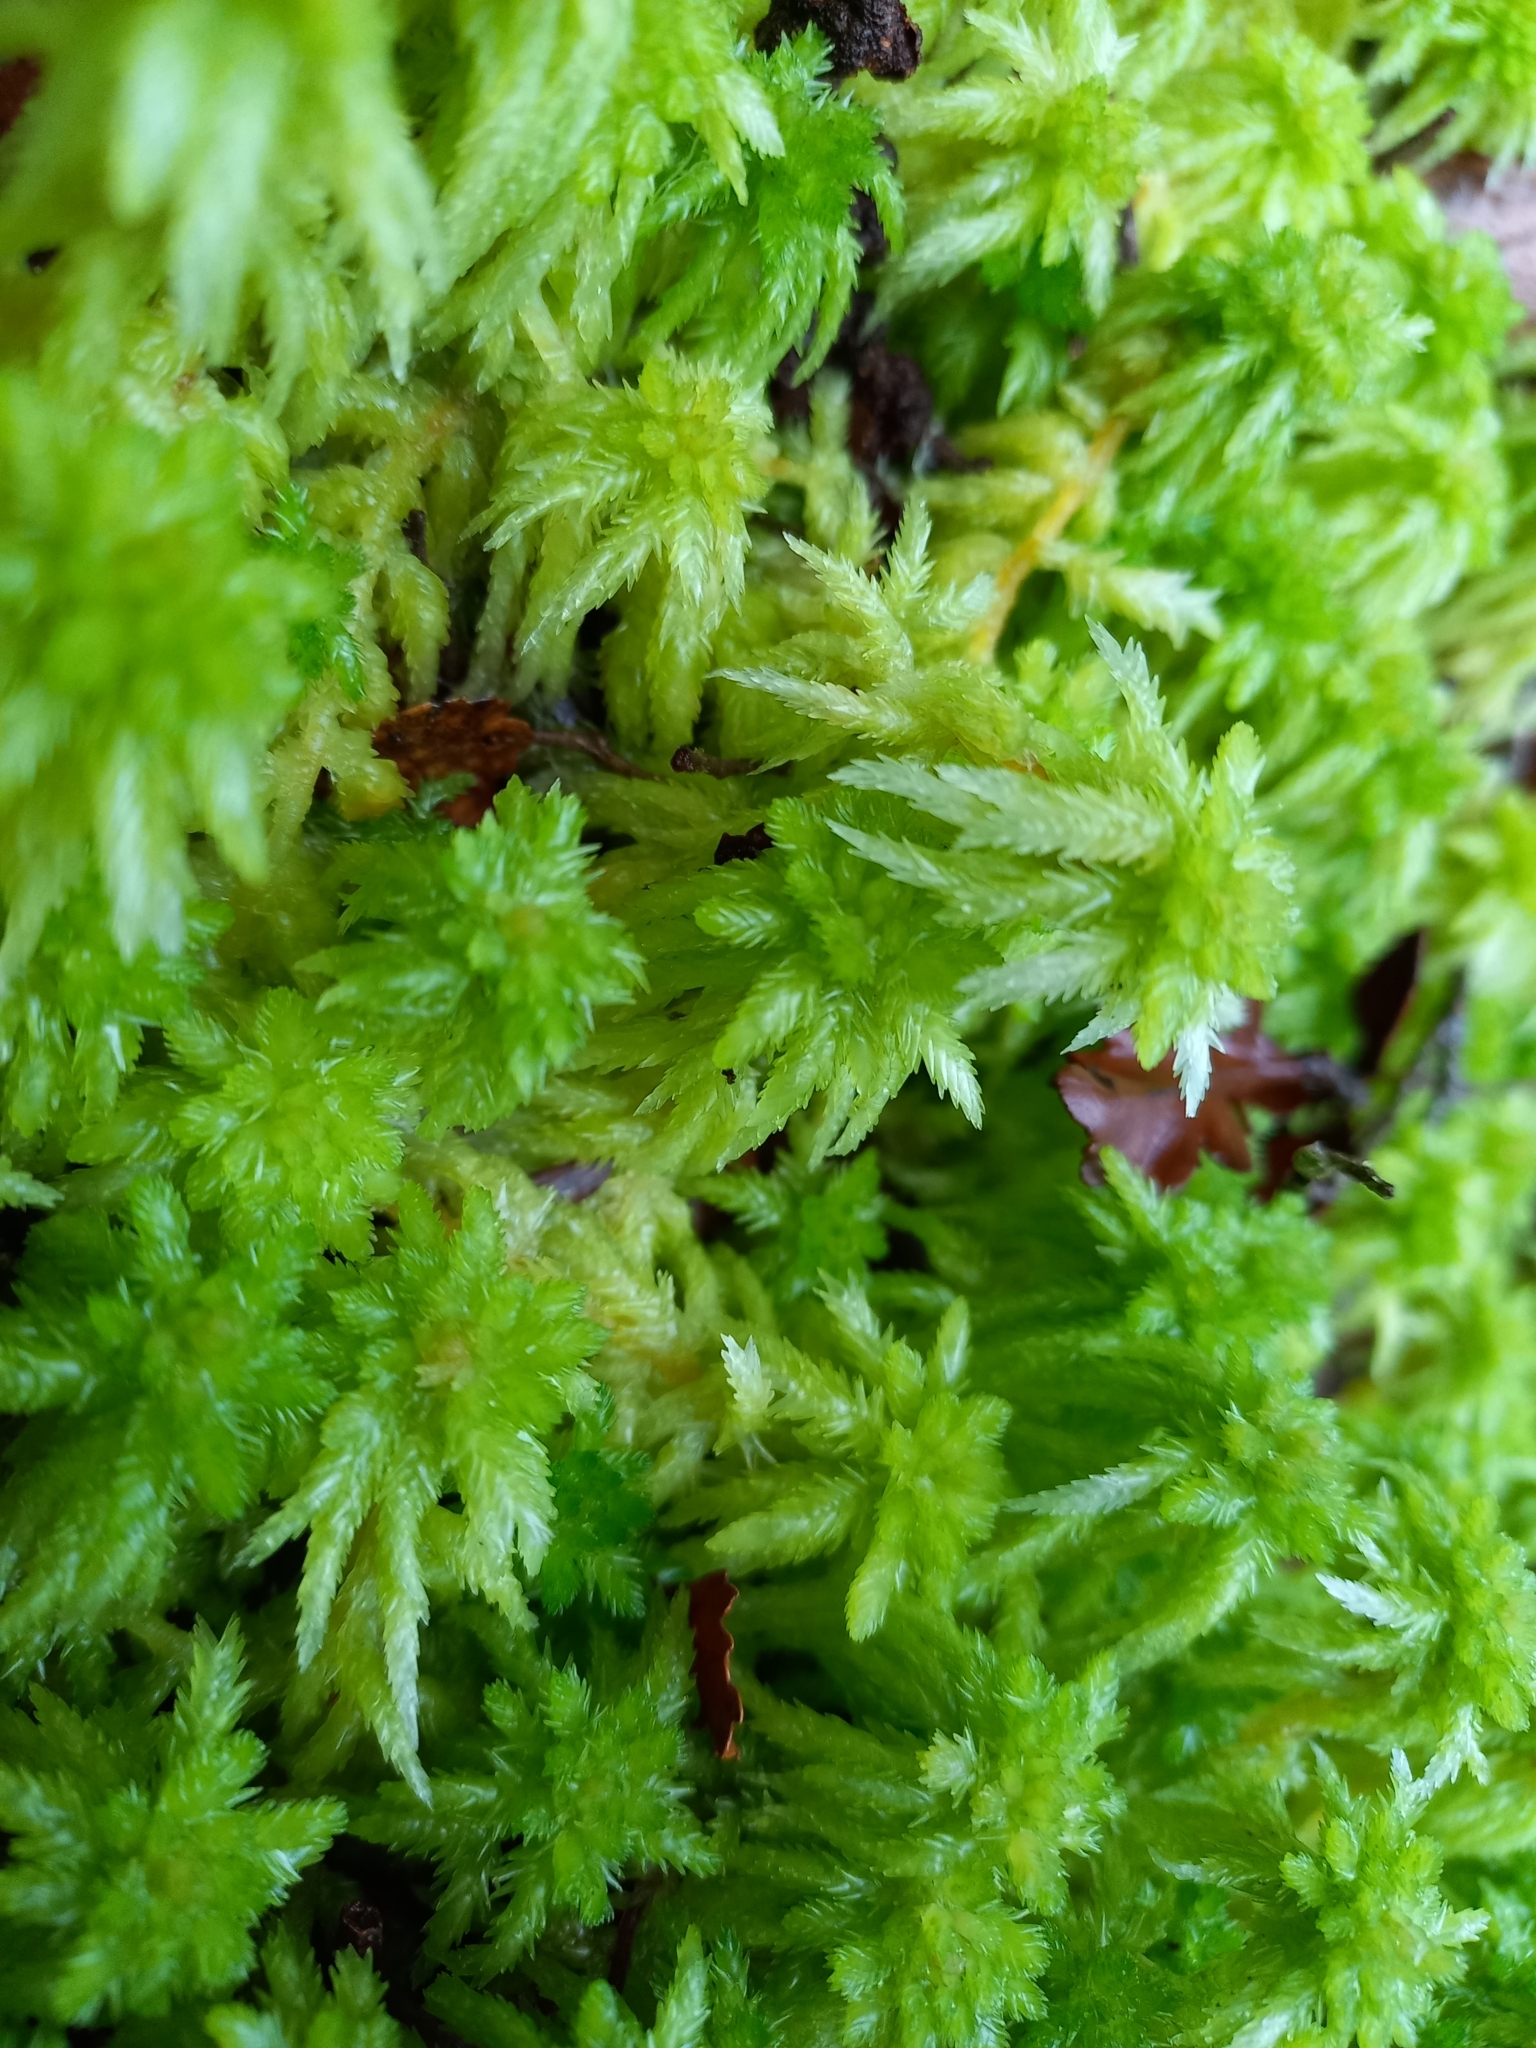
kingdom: Plantae
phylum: Bryophyta
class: Sphagnopsida
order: Sphagnales
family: Sphagnaceae
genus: Sphagnum
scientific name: Sphagnum cristatum
